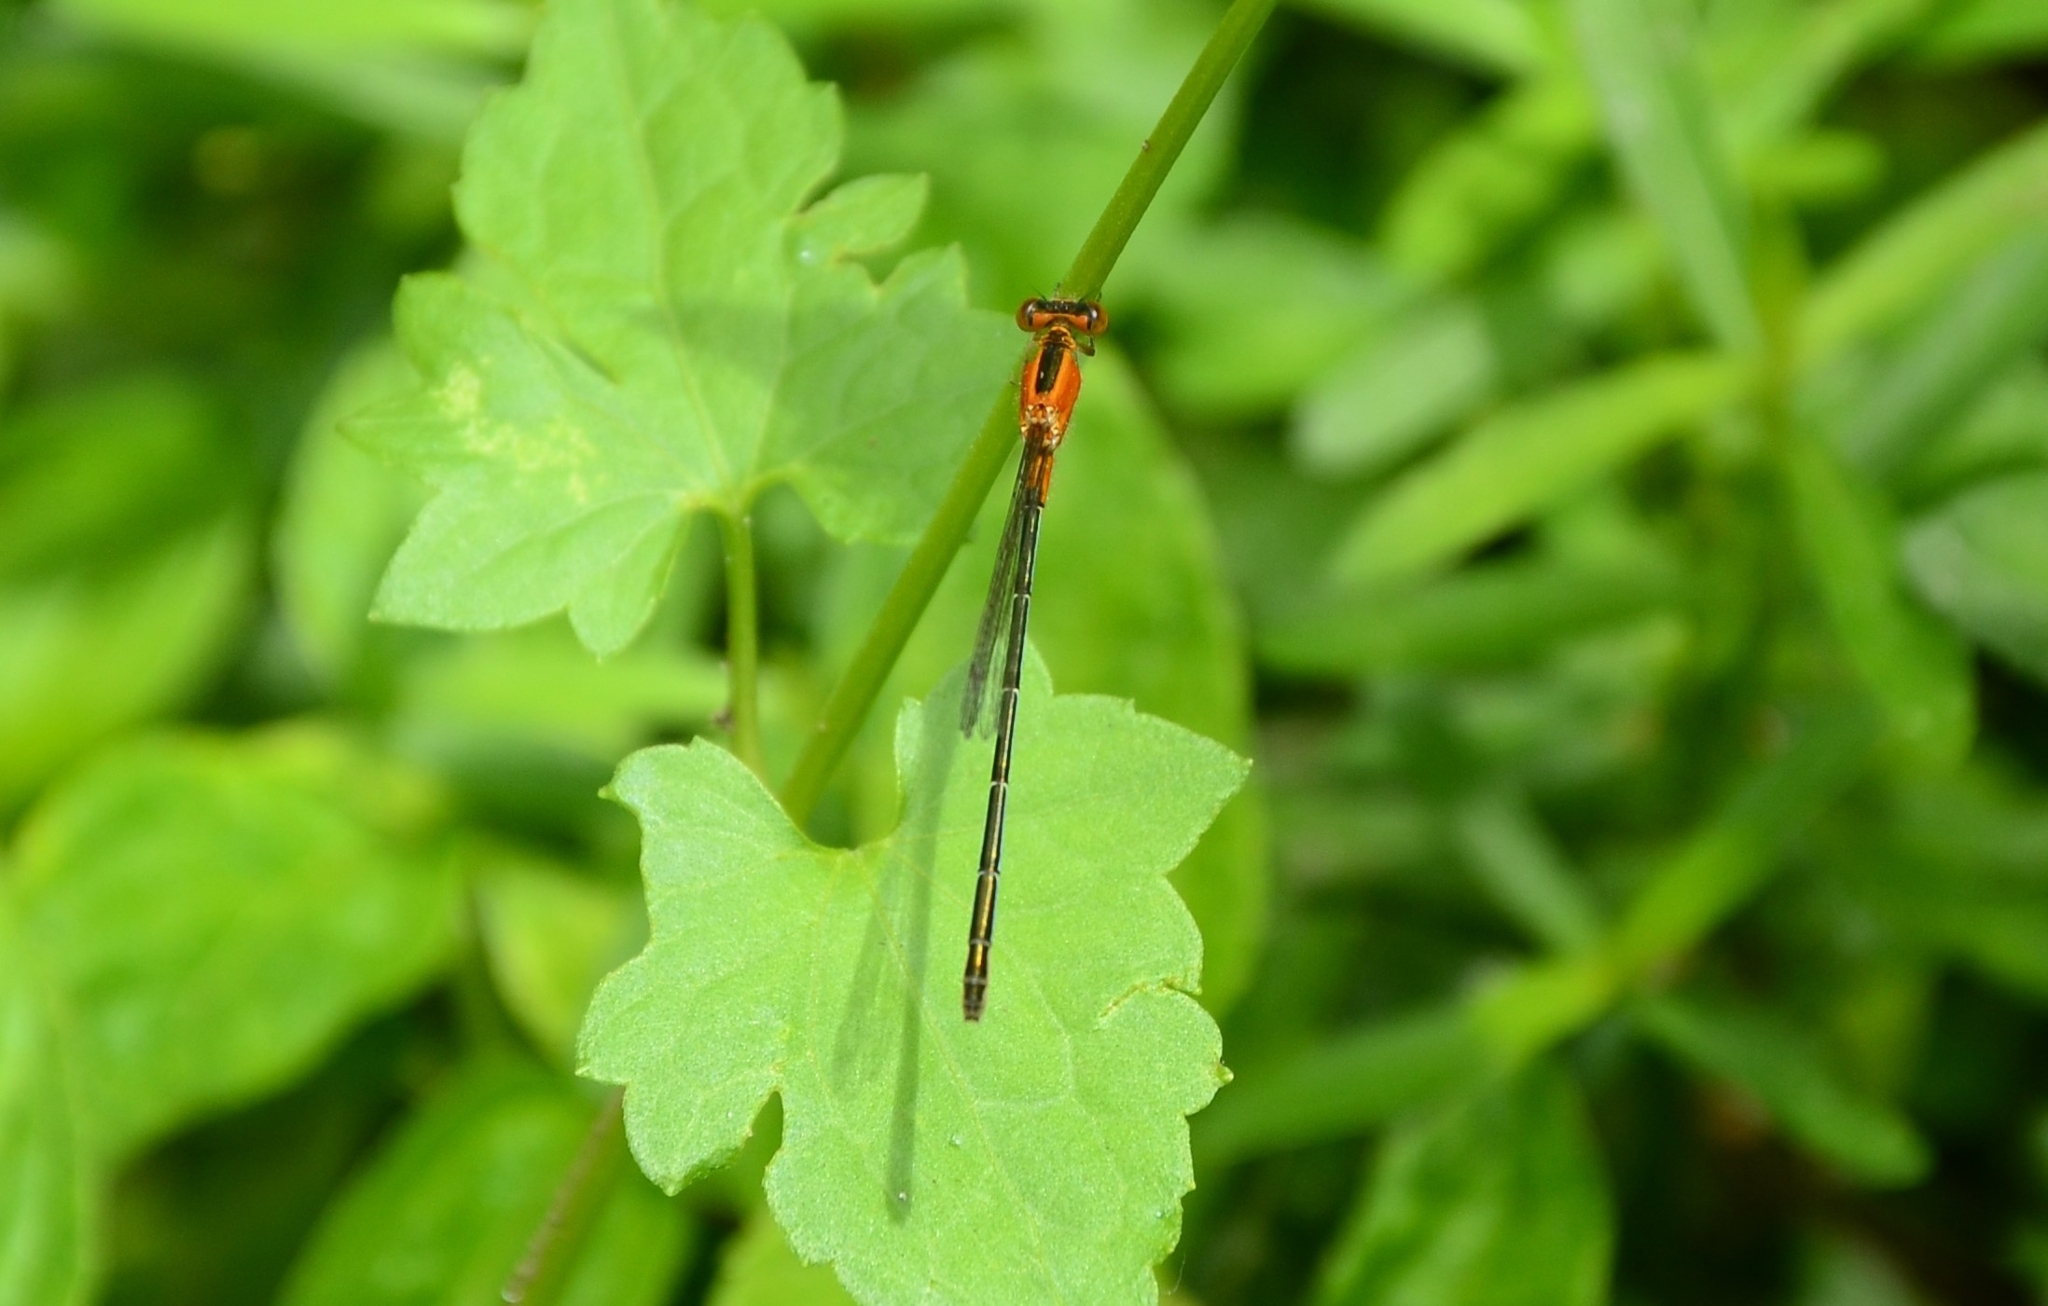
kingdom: Animalia
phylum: Arthropoda
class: Insecta
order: Odonata
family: Coenagrionidae
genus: Ischnura
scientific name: Ischnura senegalensis
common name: Tropical bluetail
